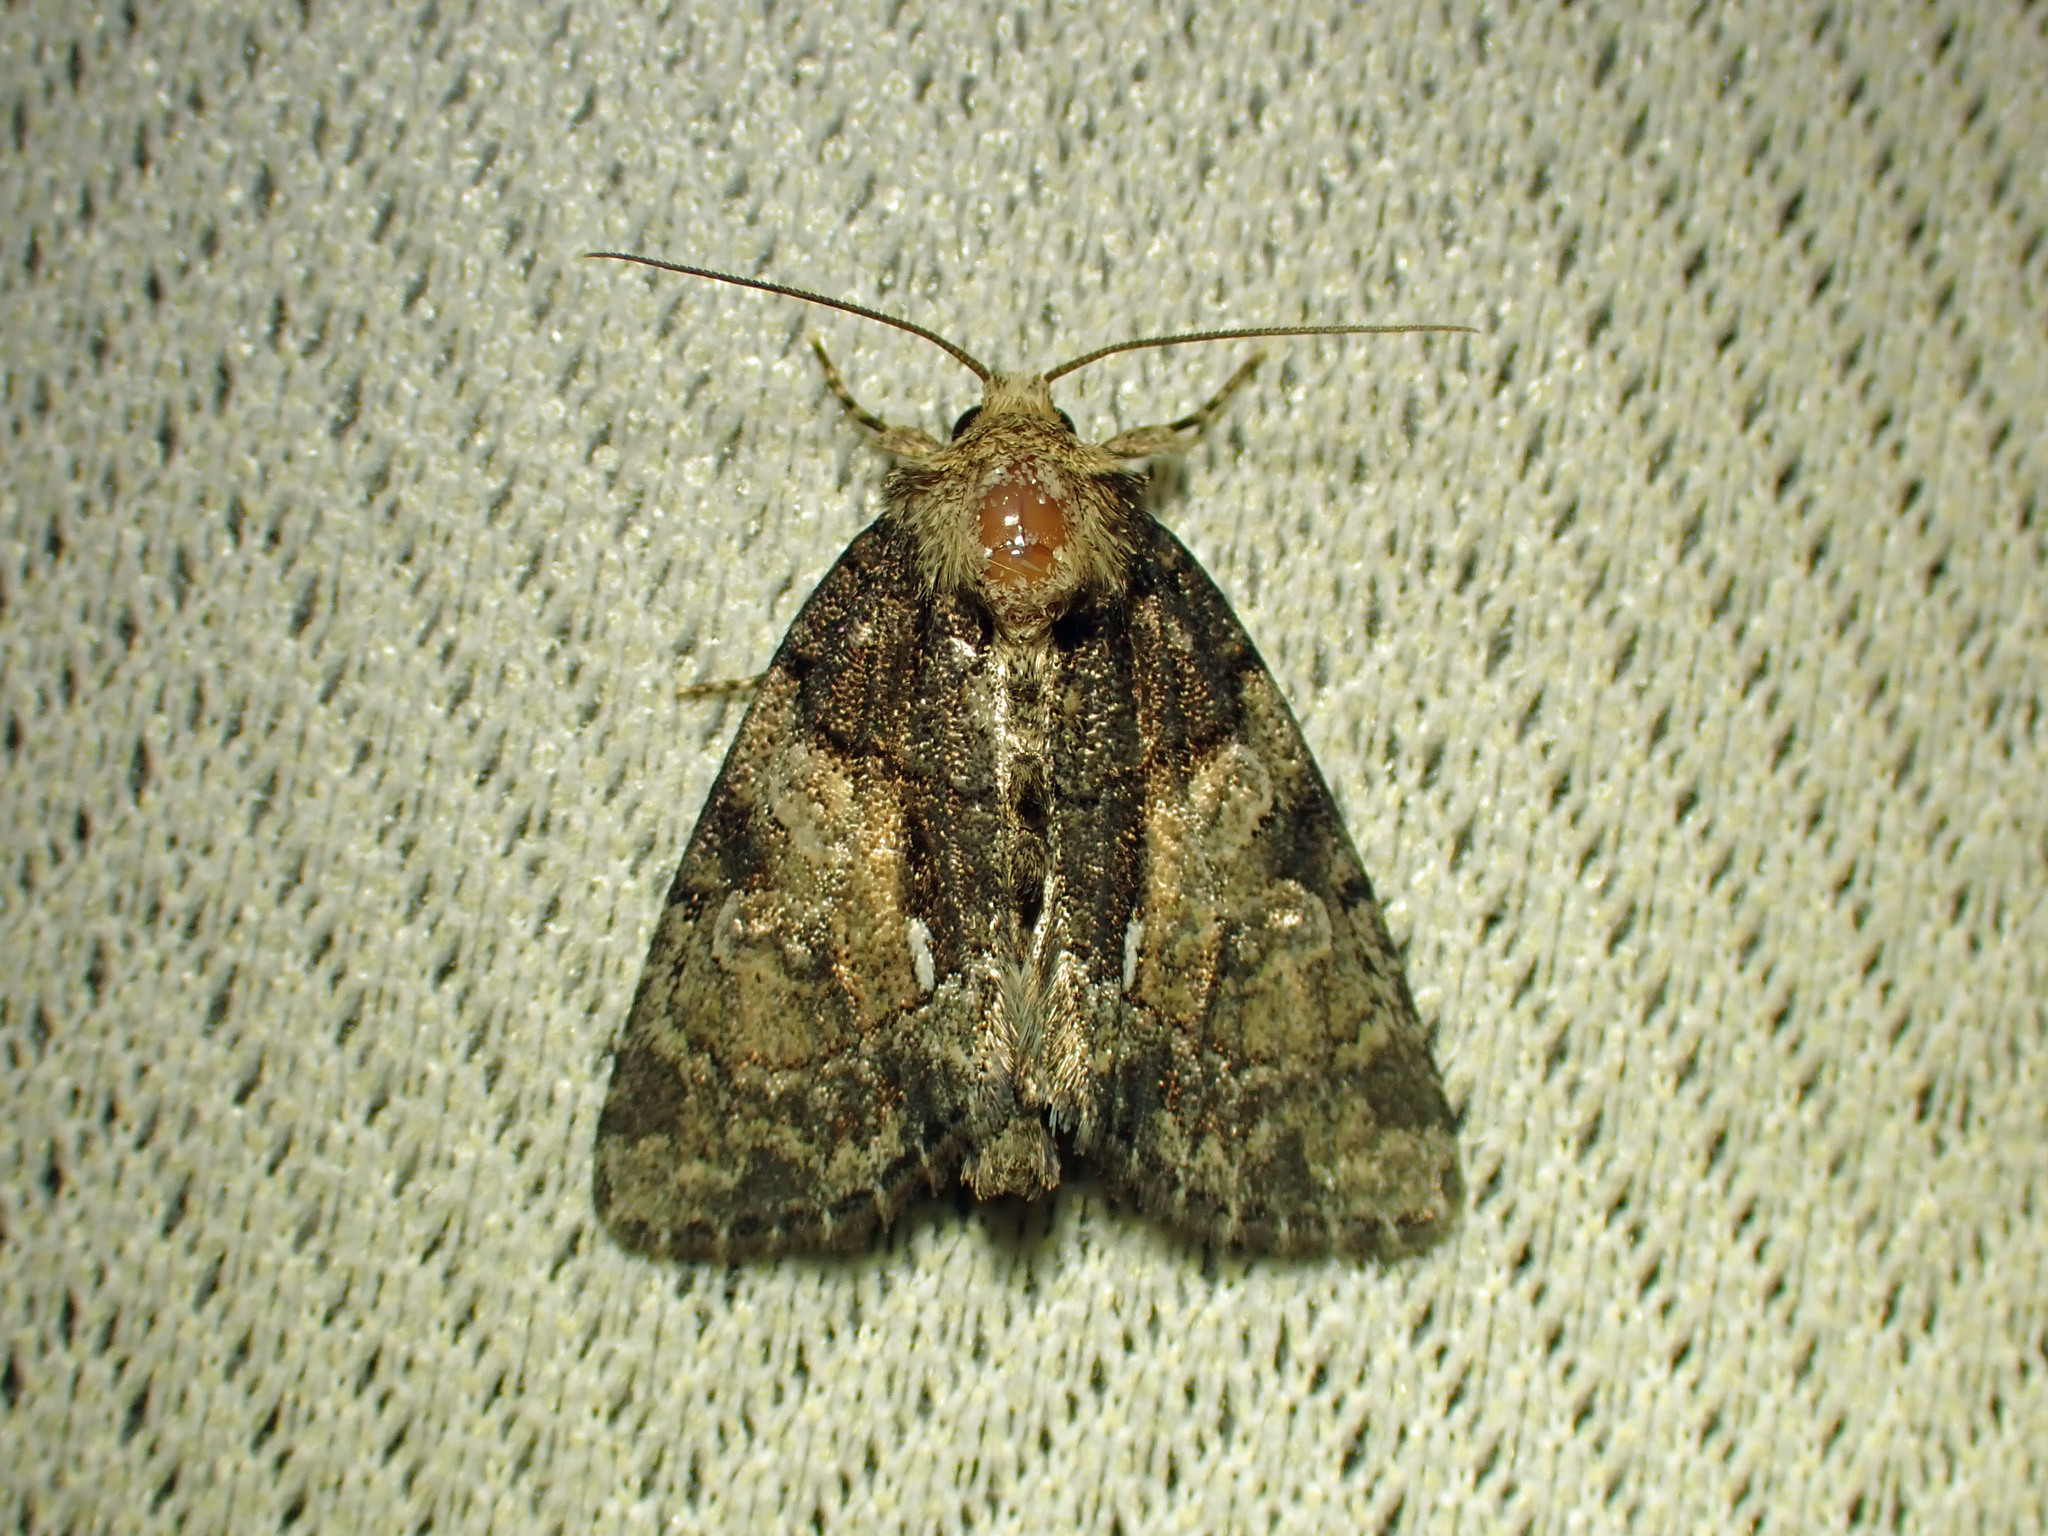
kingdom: Animalia
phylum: Arthropoda
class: Insecta
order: Lepidoptera
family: Noctuidae
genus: Chytonix
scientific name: Chytonix palliatricula
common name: Cloaked marvel
